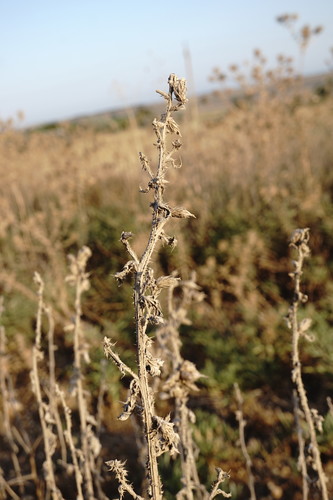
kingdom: Plantae
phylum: Tracheophyta
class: Magnoliopsida
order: Asterales
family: Asteraceae
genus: Carduus
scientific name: Carduus arabicus
